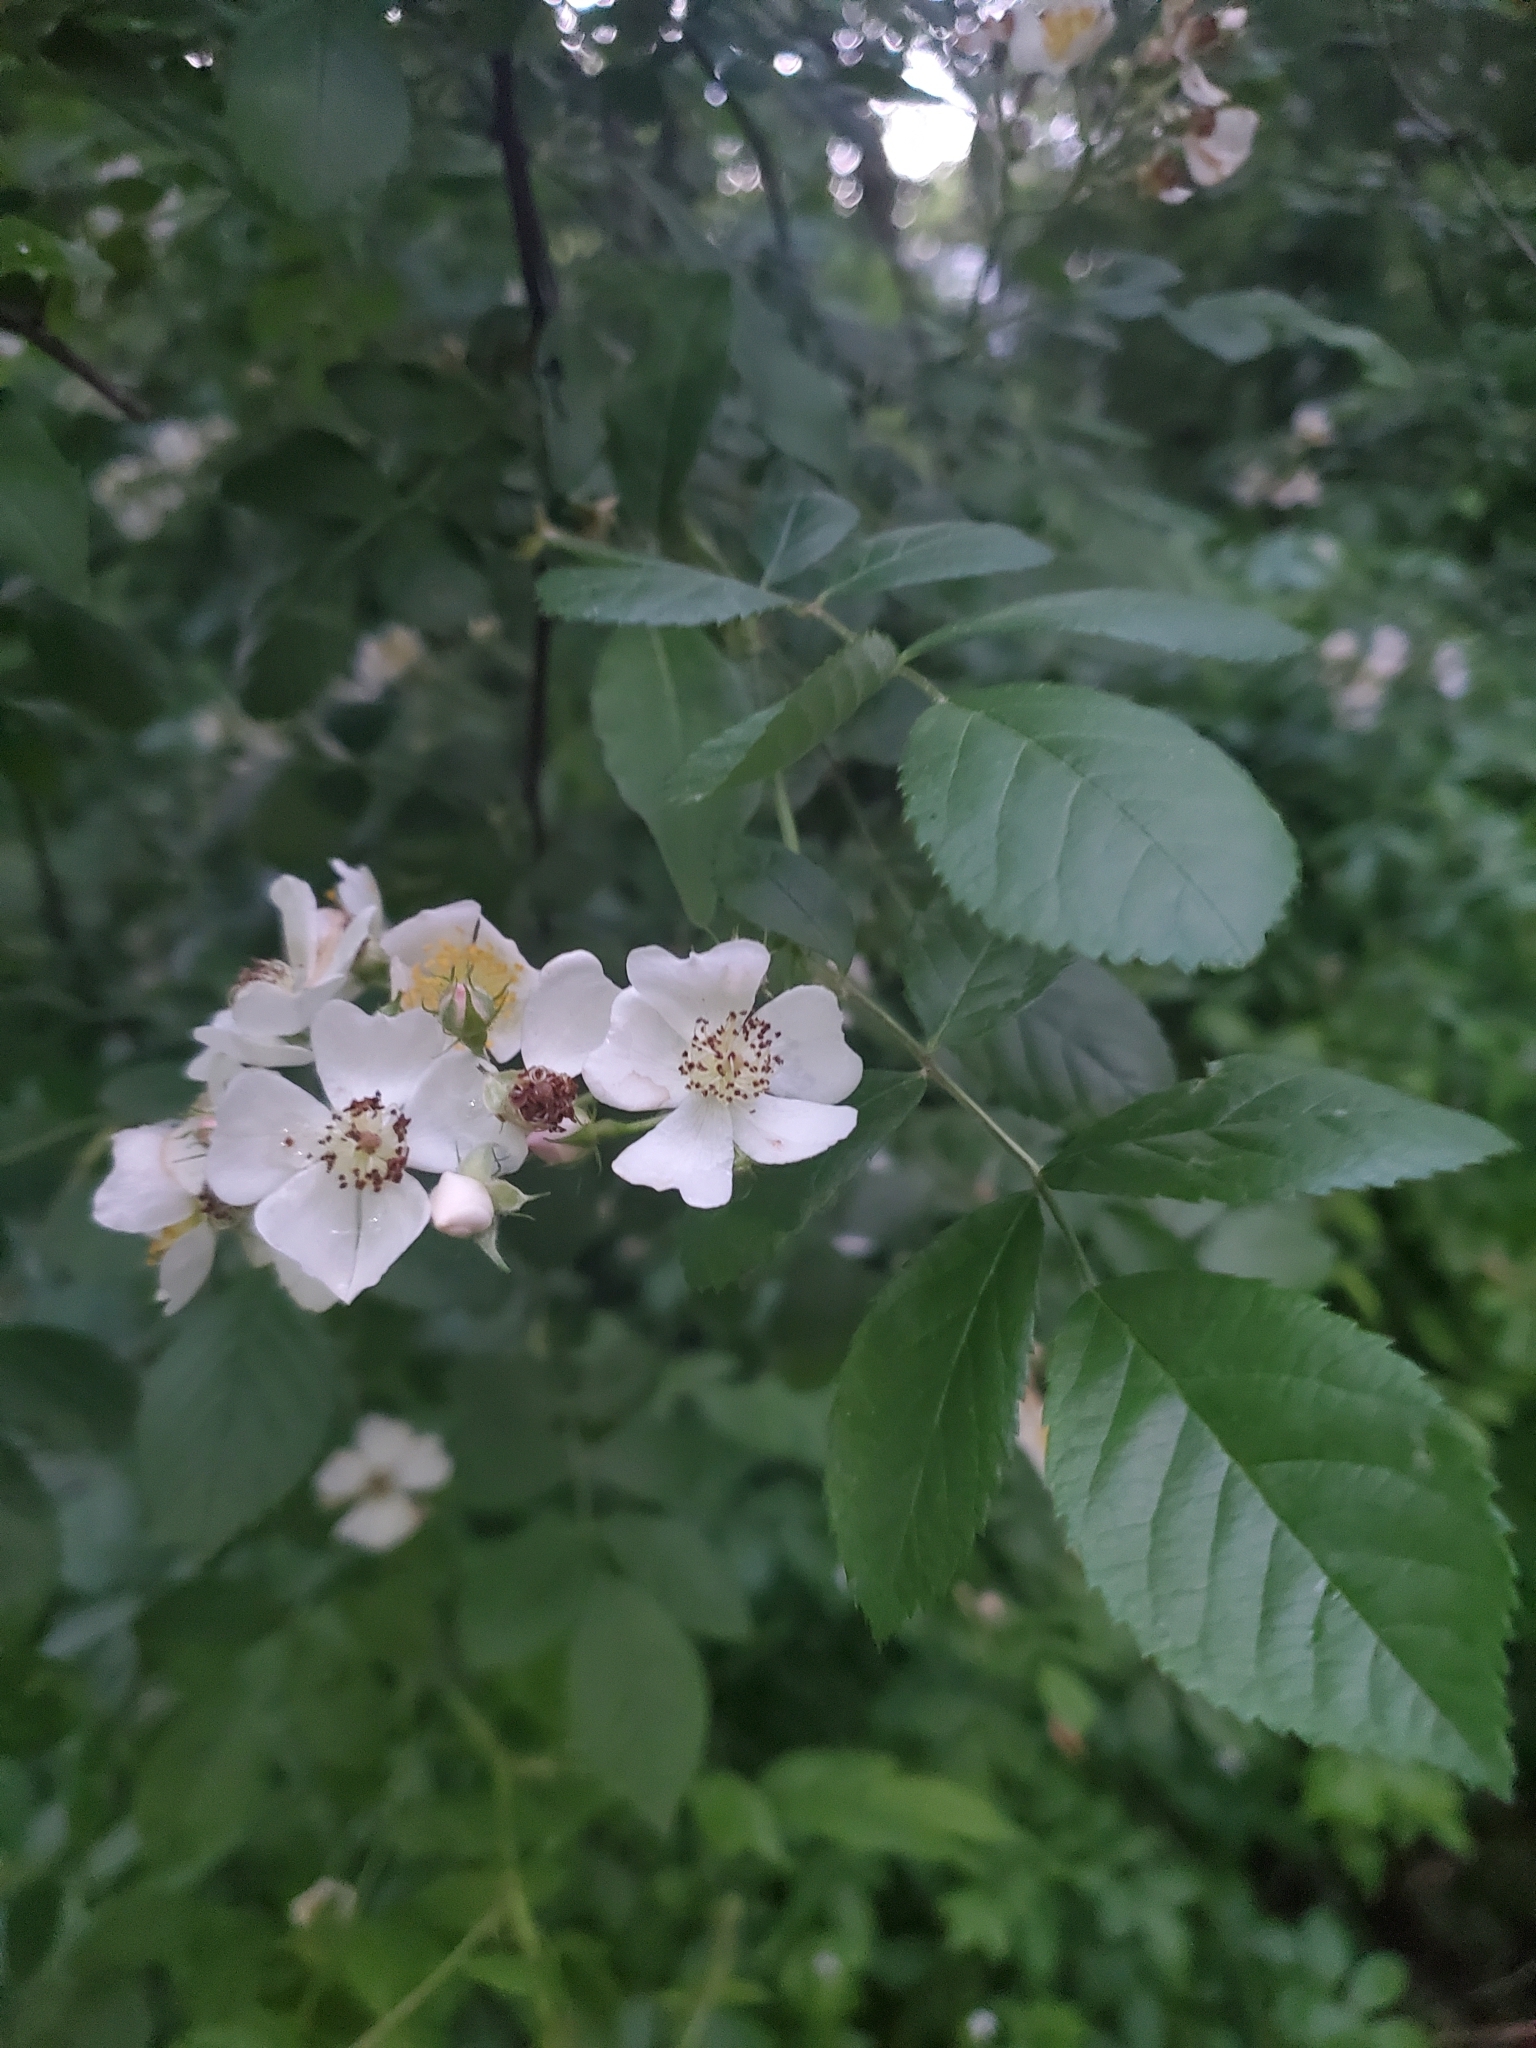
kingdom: Plantae
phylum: Tracheophyta
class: Magnoliopsida
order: Rosales
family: Rosaceae
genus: Rosa
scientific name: Rosa multiflora
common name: Multiflora rose
